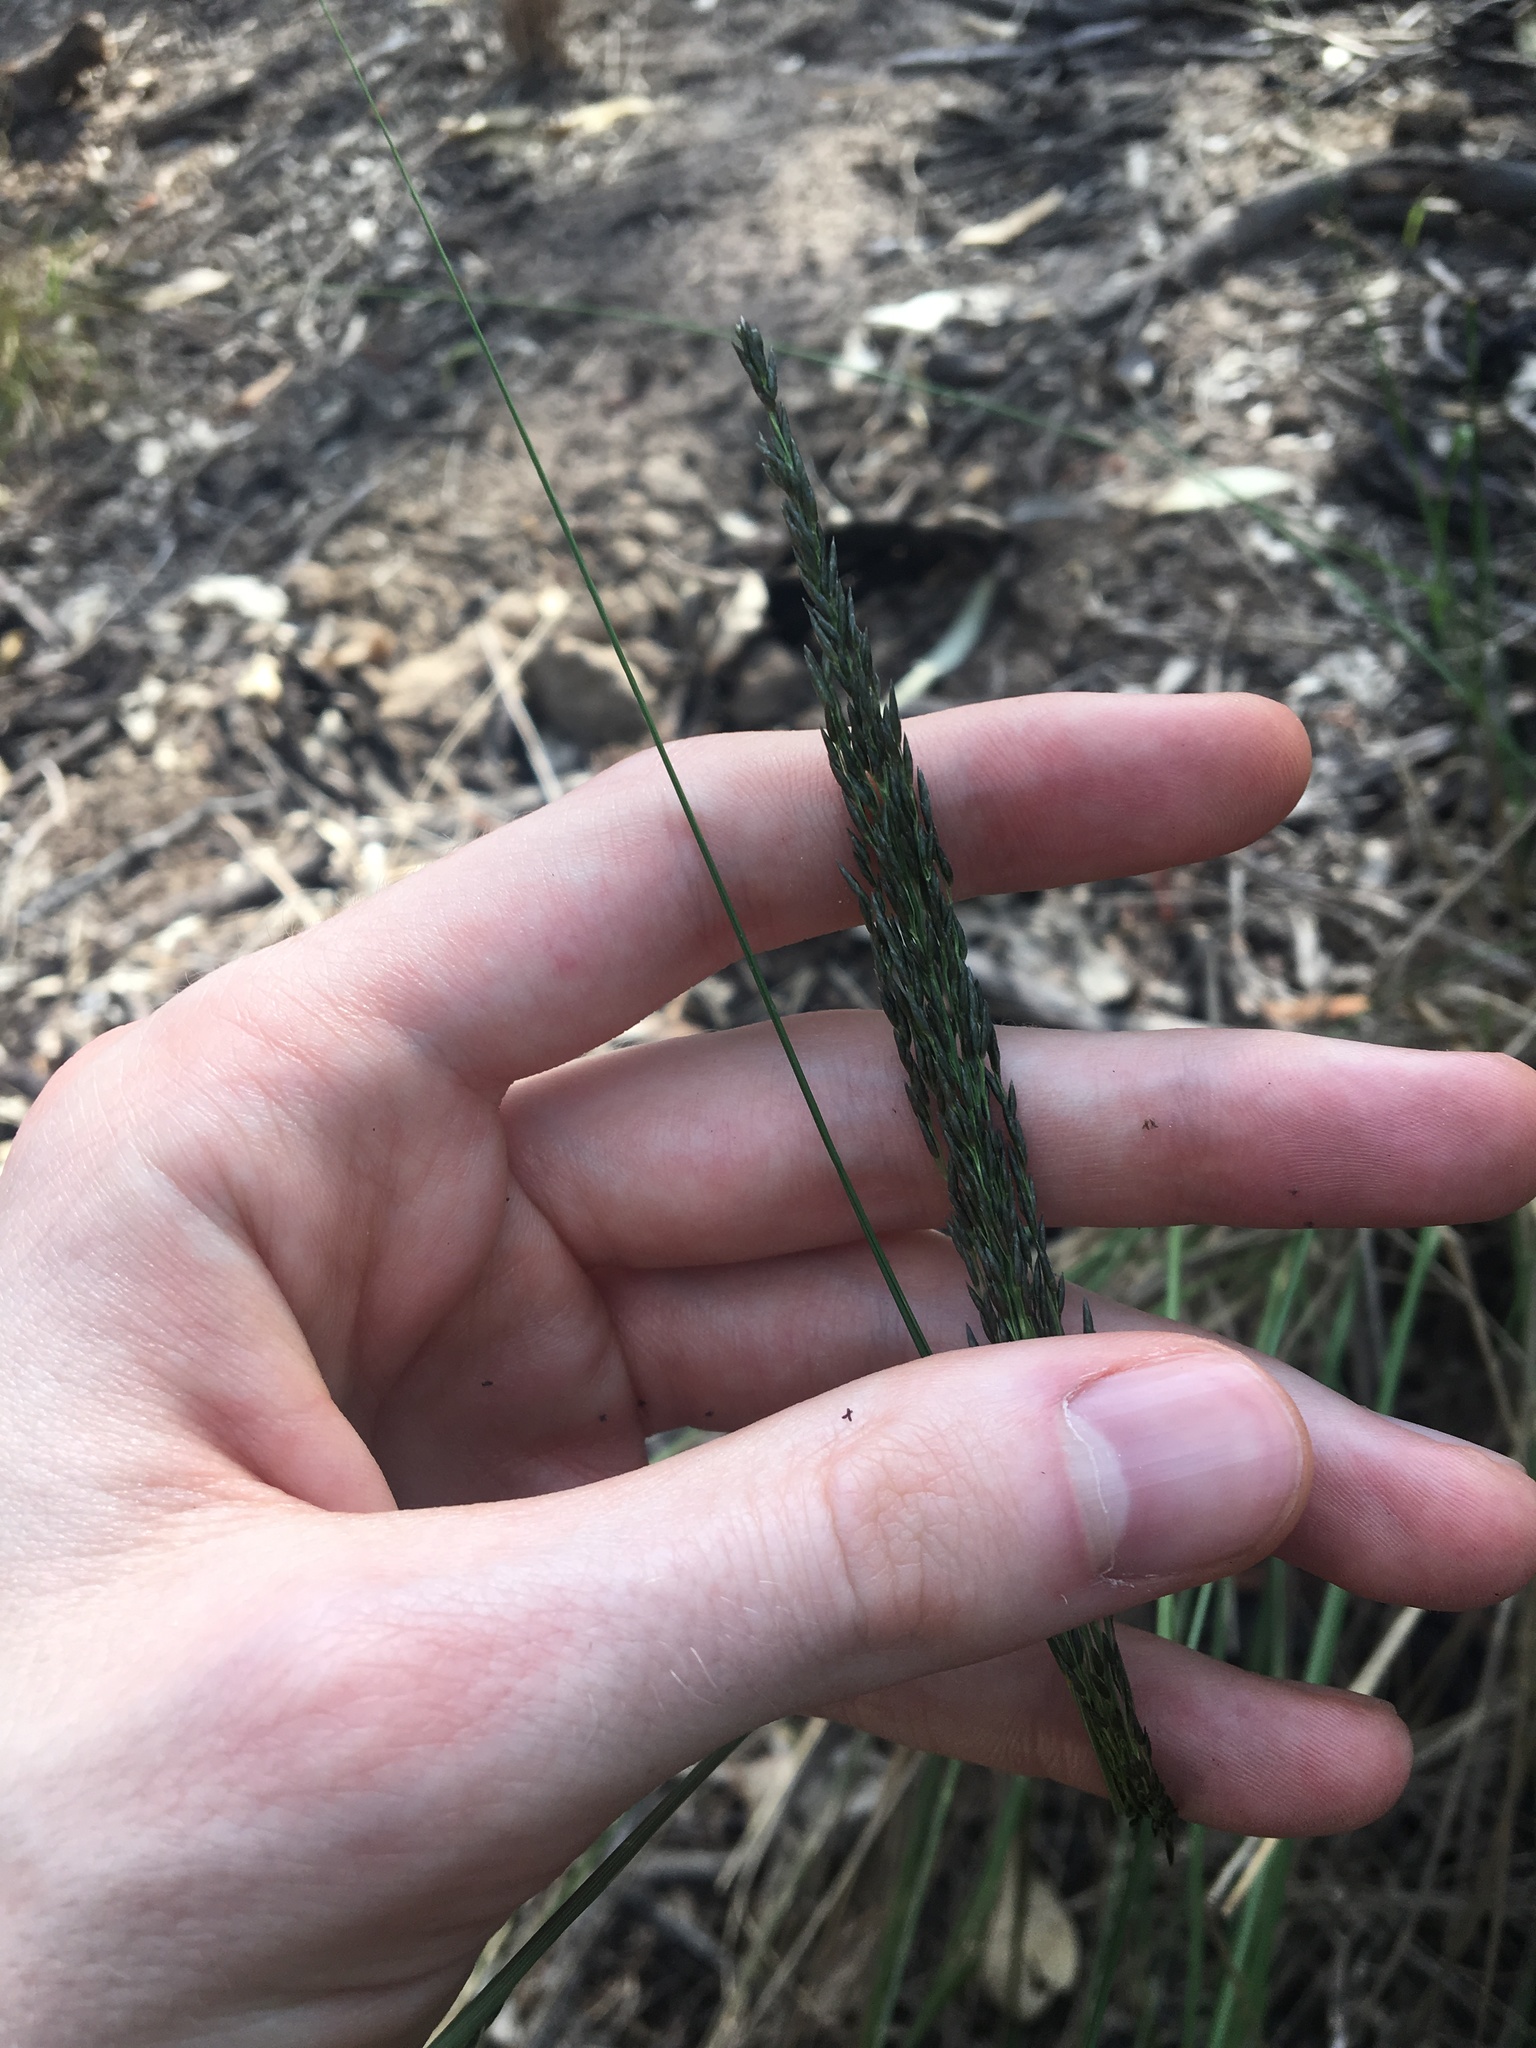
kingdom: Plantae
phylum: Tracheophyta
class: Liliopsida
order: Poales
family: Poaceae
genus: Eragrostis
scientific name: Eragrostis curvula
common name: African love-grass
